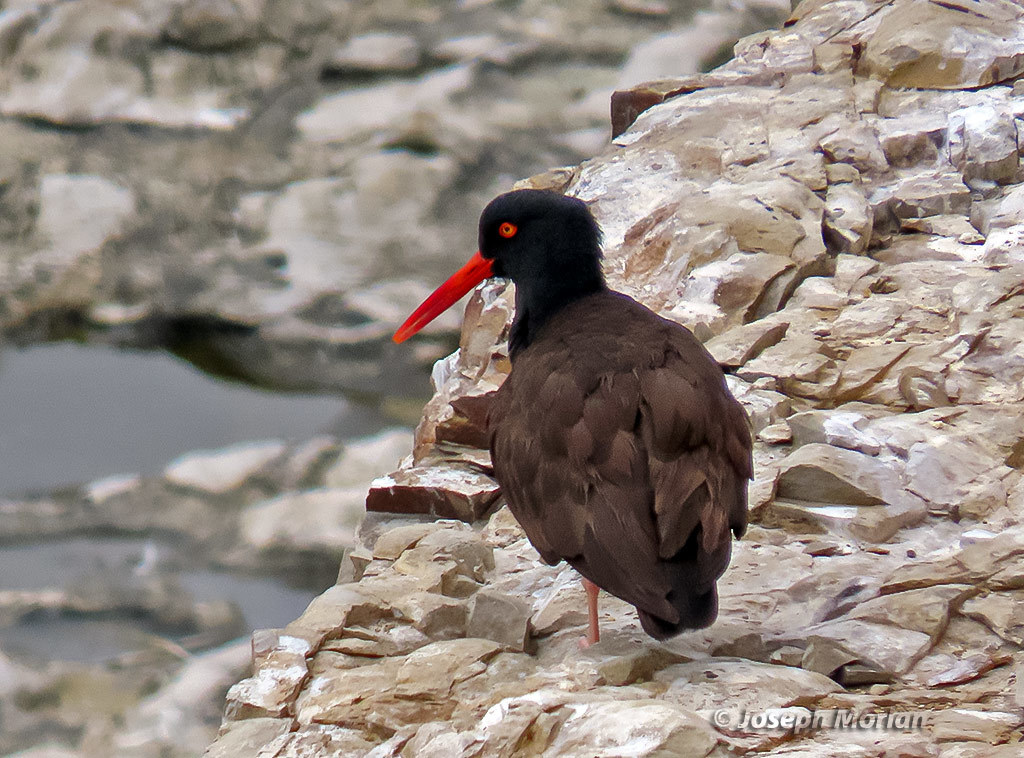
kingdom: Animalia
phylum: Chordata
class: Aves
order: Charadriiformes
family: Haematopodidae
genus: Haematopus
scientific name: Haematopus bachmani
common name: Black oystercatcher
